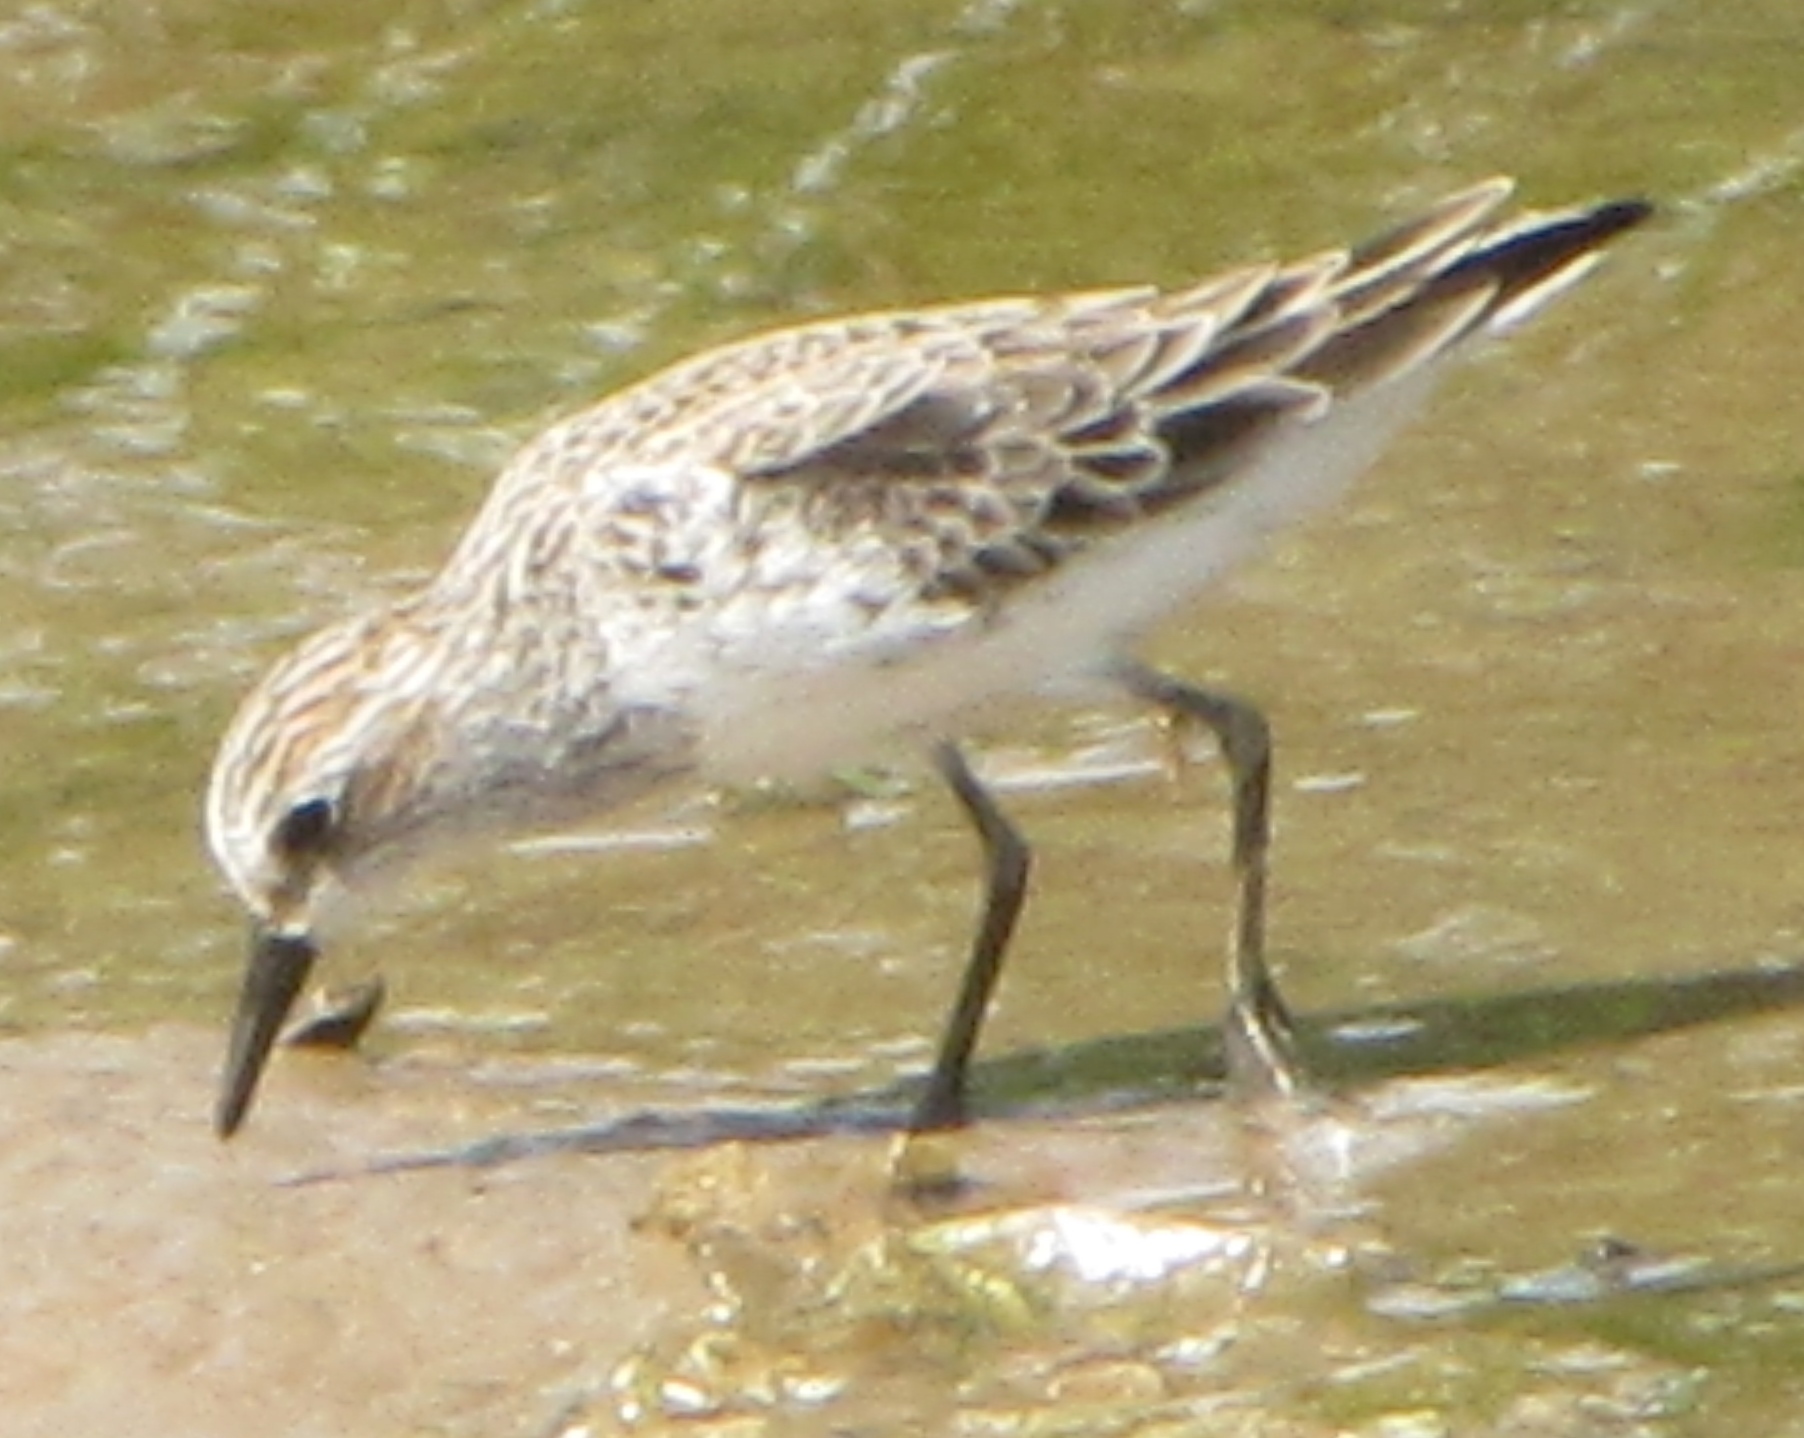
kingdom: Animalia
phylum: Chordata
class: Aves
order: Charadriiformes
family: Scolopacidae
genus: Calidris
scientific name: Calidris pusilla
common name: Semipalmated sandpiper
